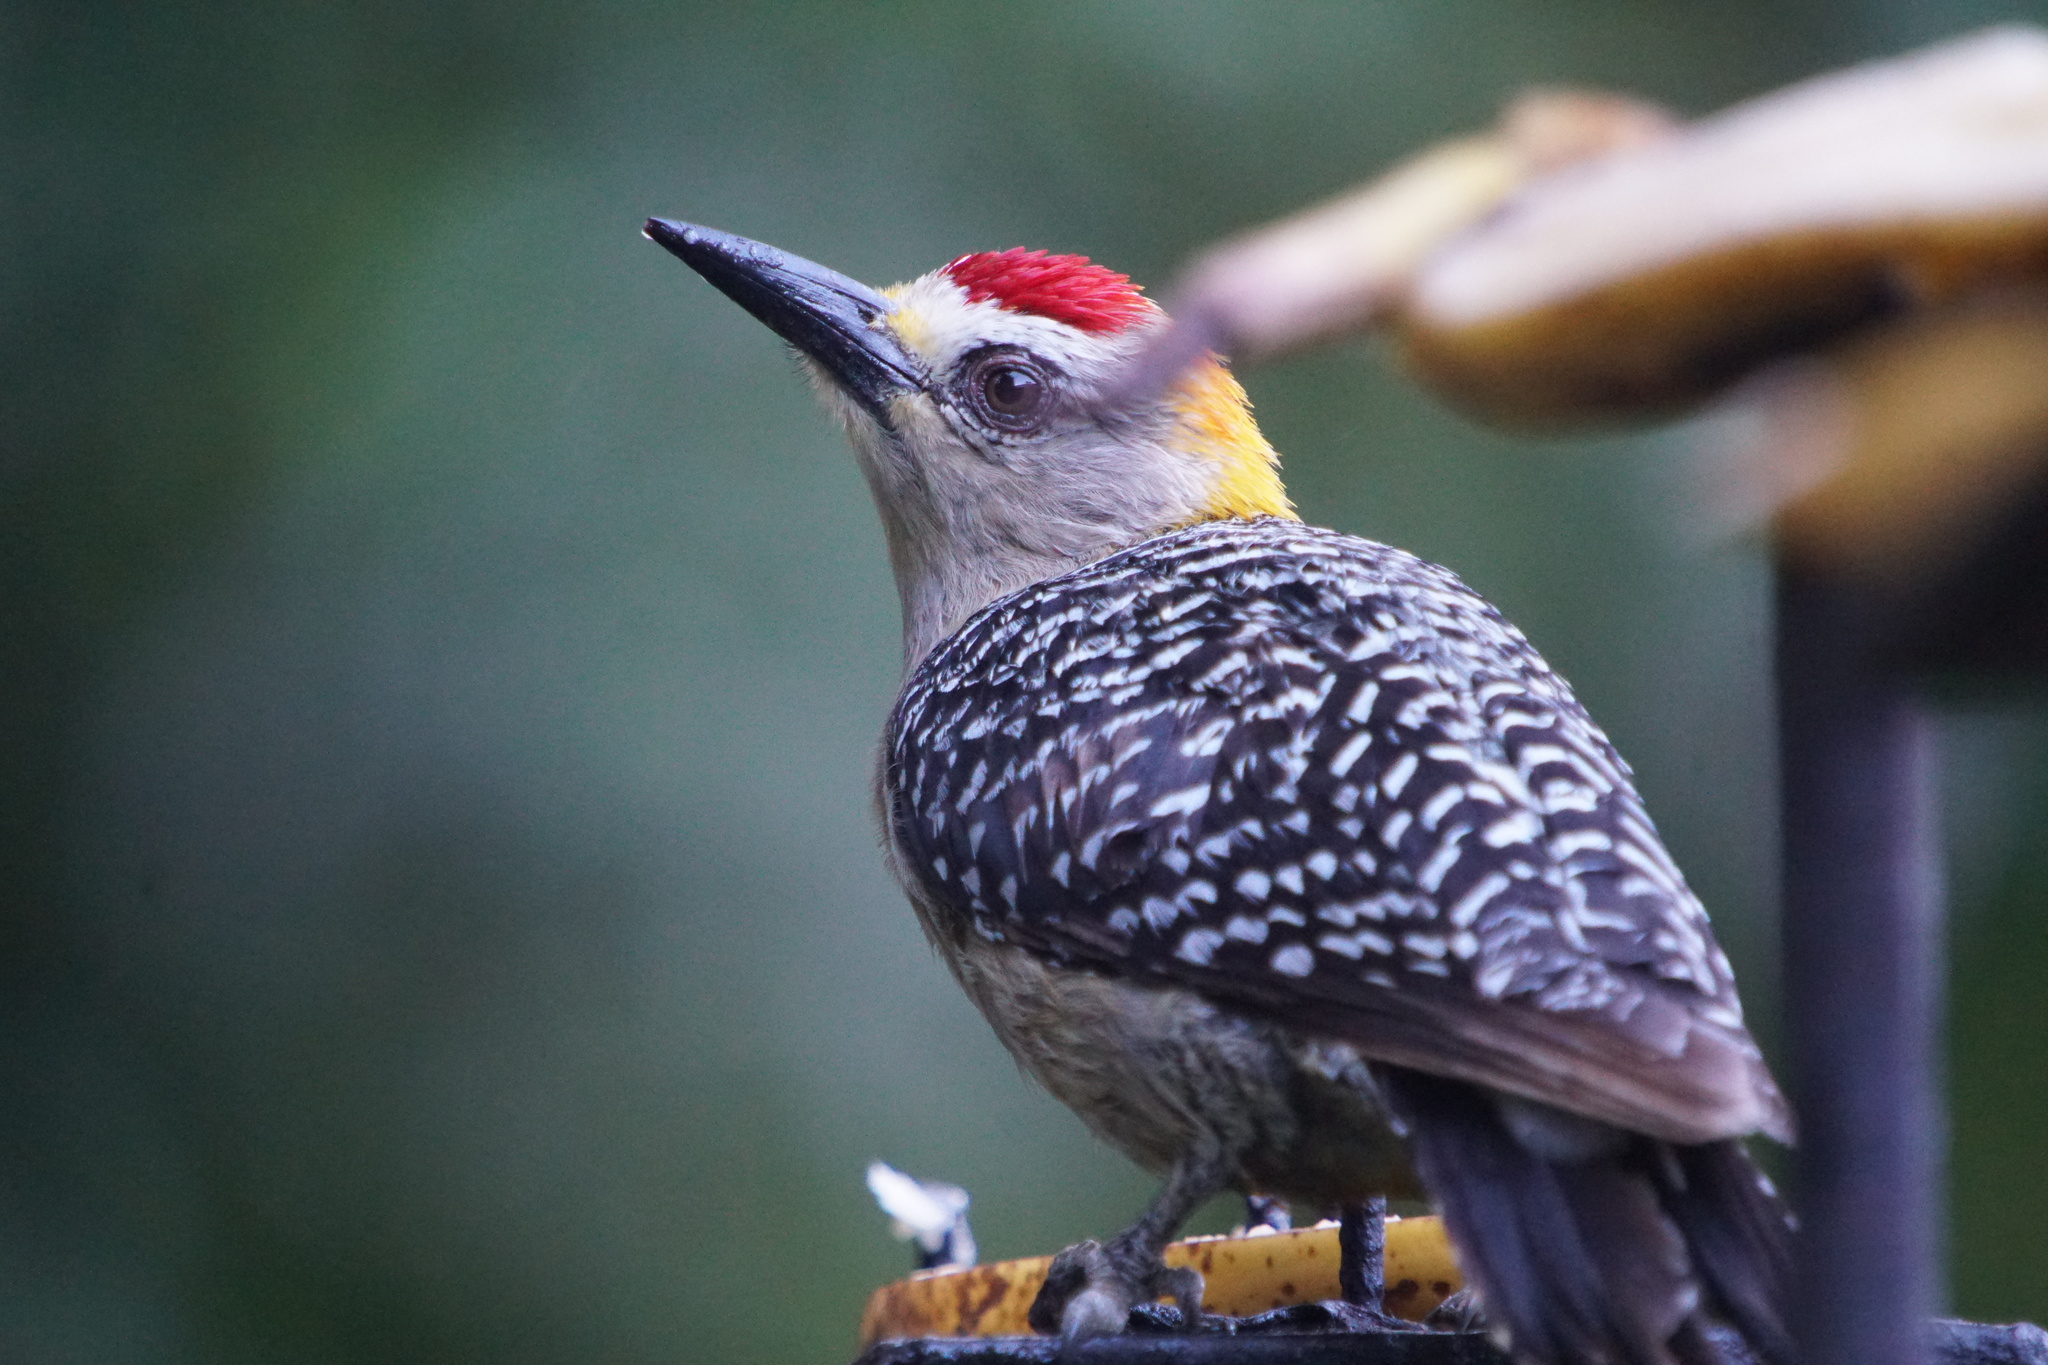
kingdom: Animalia
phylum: Chordata
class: Aves
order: Piciformes
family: Picidae
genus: Melanerpes
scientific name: Melanerpes hoffmannii
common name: Hoffmann's woodpecker
